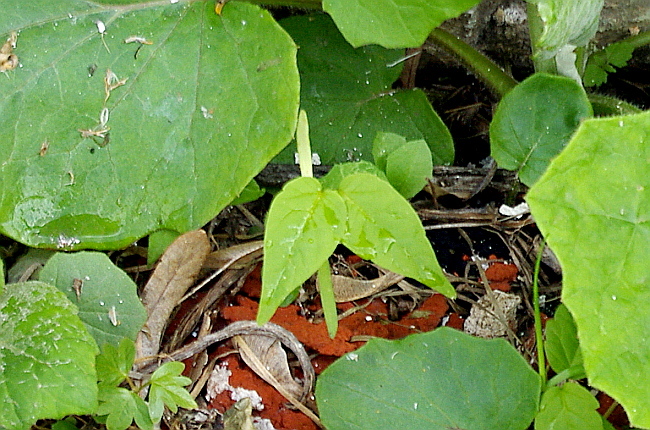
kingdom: Plantae
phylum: Tracheophyta
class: Magnoliopsida
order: Sapindales
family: Sapindaceae
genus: Acer
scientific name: Acer negundo
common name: Ashleaf maple
